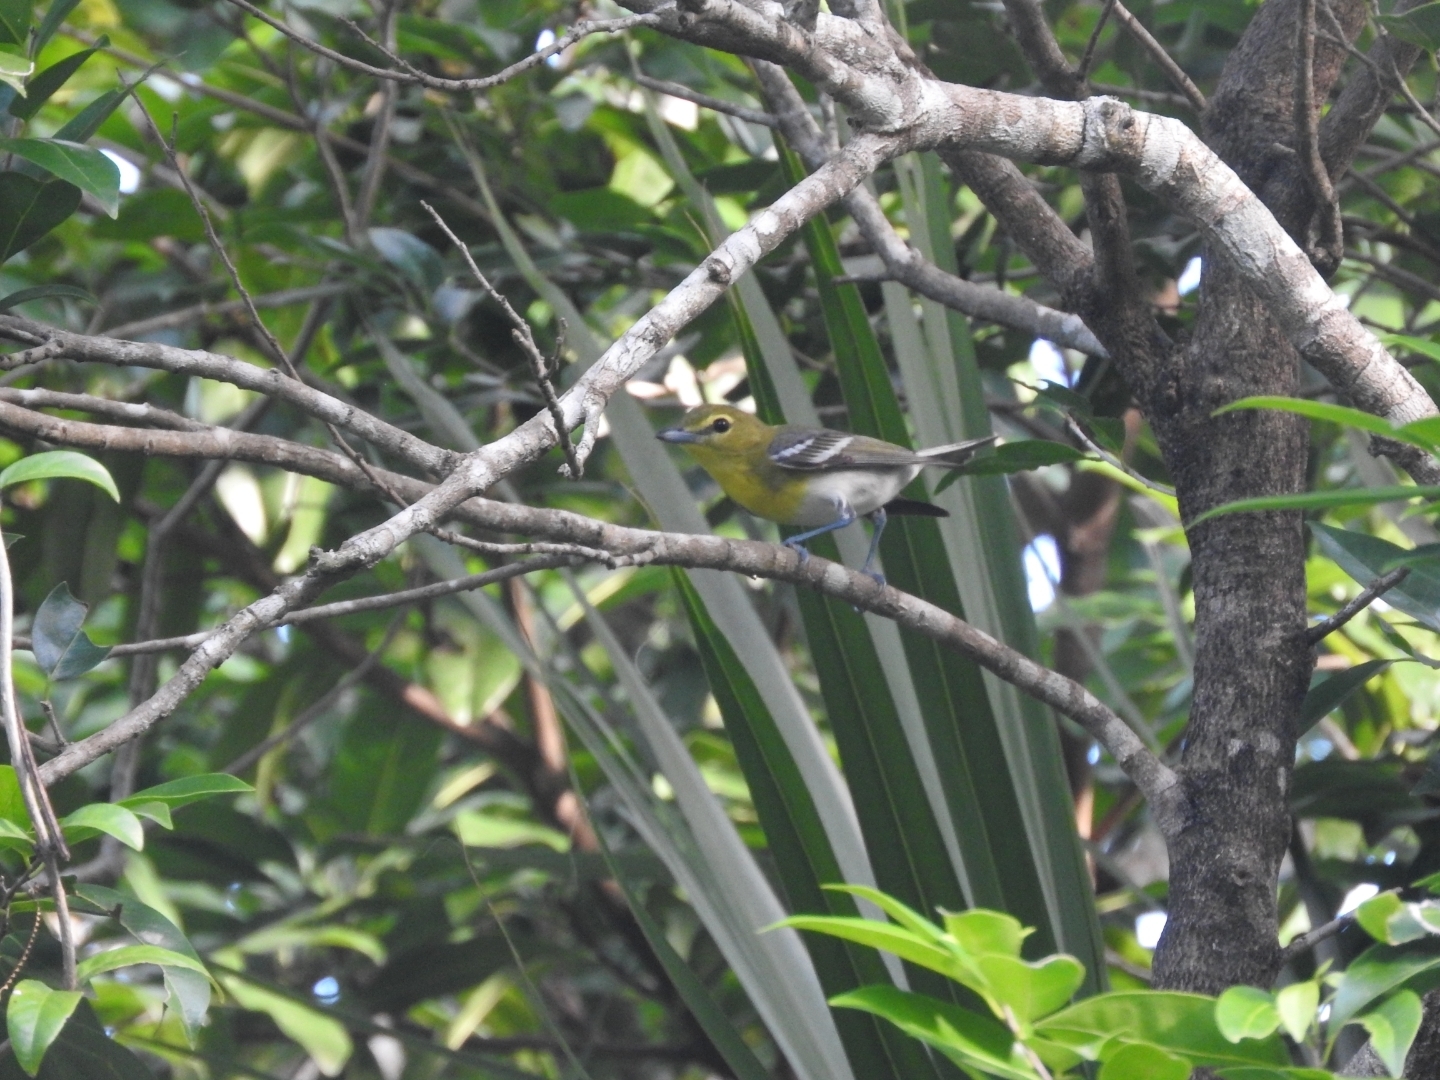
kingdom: Animalia
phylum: Chordata
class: Aves
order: Passeriformes
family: Vireonidae
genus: Vireo
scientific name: Vireo flavifrons
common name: Yellow-throated vireo
